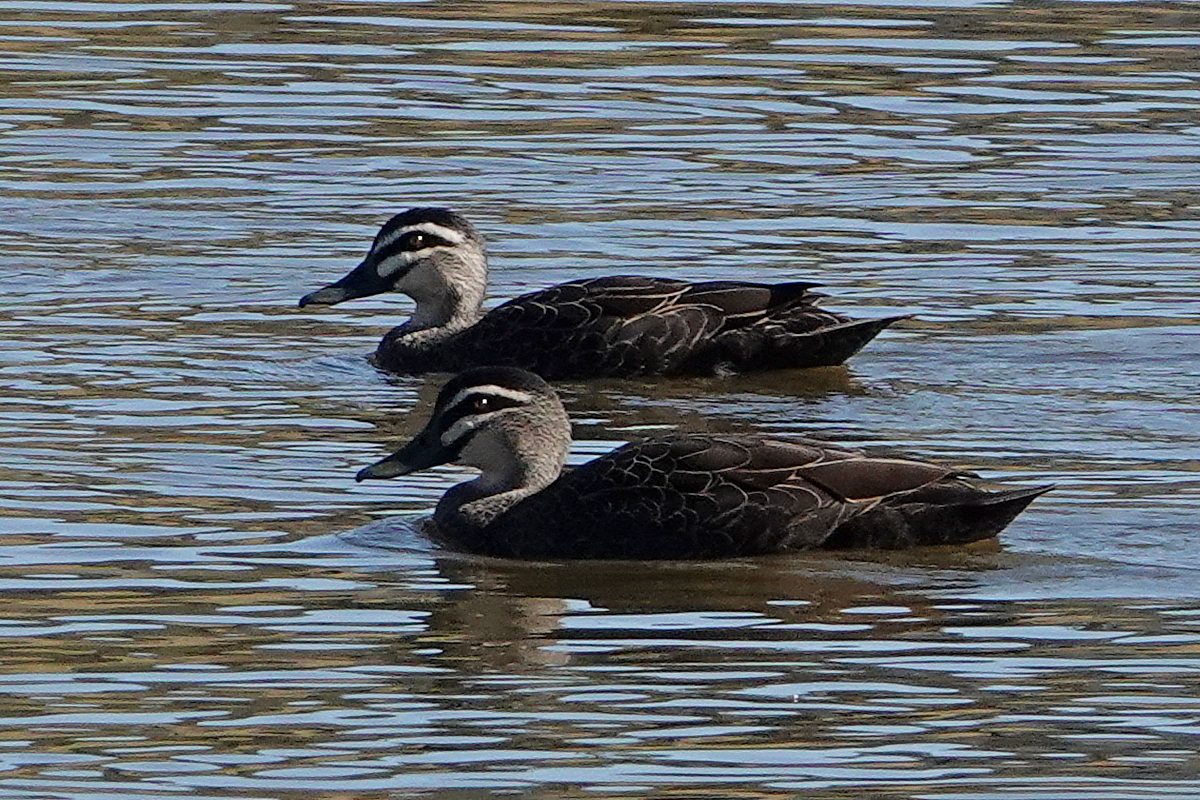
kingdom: Animalia
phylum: Chordata
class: Aves
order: Anseriformes
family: Anatidae
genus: Anas
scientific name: Anas superciliosa
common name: Pacific black duck
